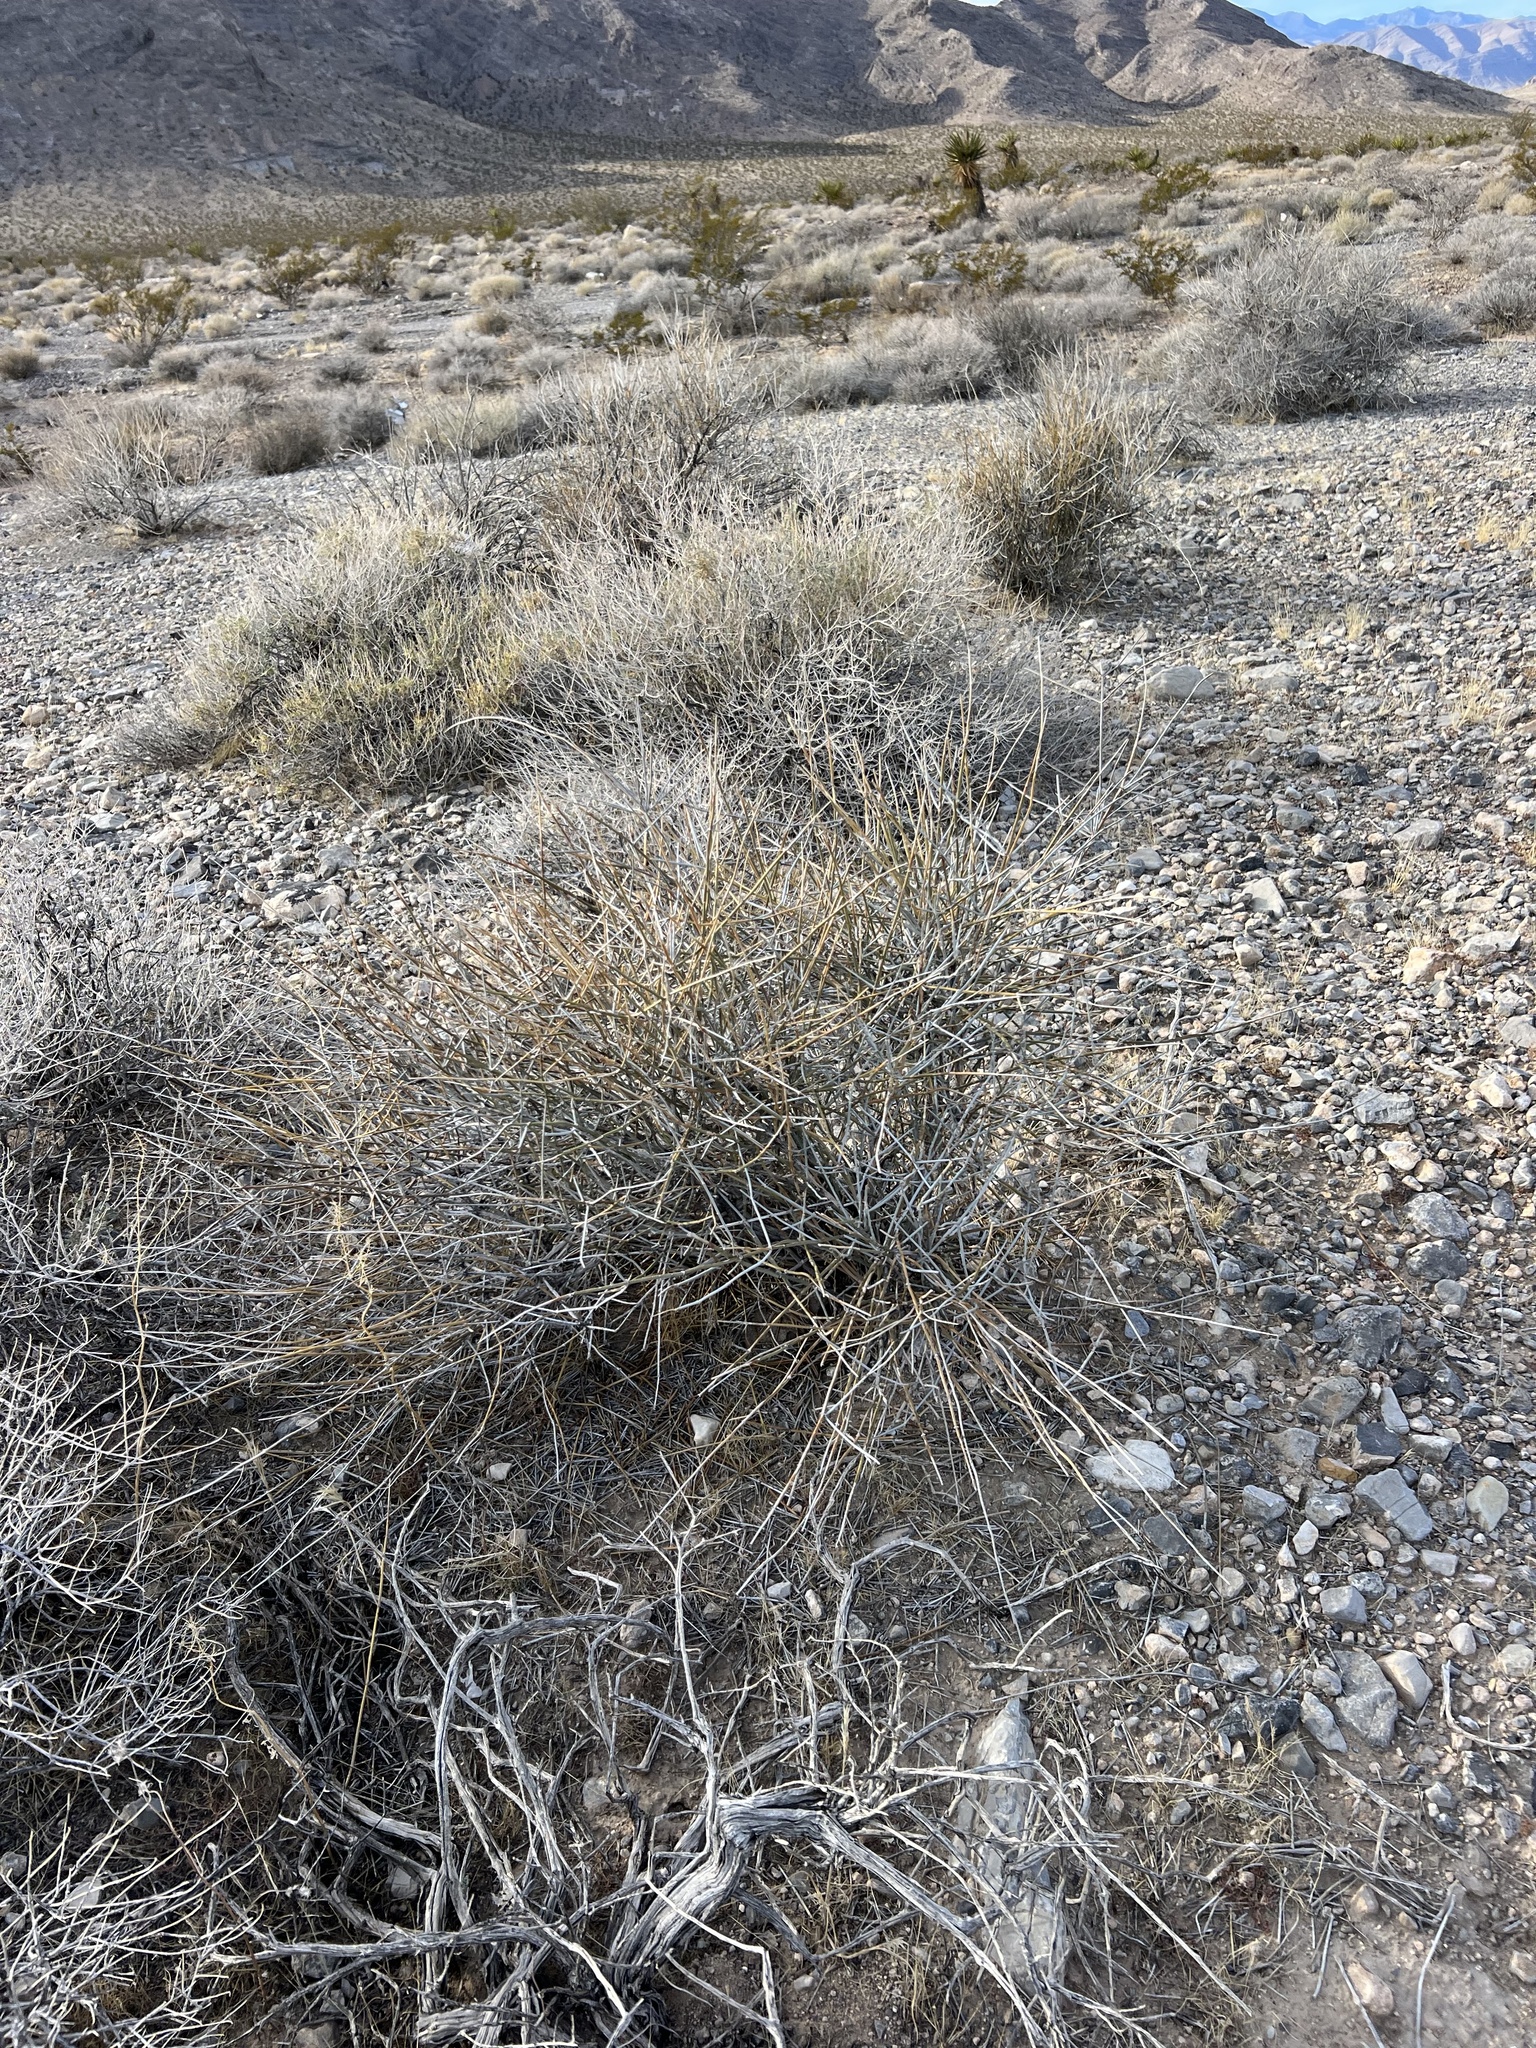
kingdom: Plantae
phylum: Tracheophyta
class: Gnetopsida
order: Ephedrales
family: Ephedraceae
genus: Ephedra
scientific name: Ephedra nevadensis
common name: Gray ephedra
